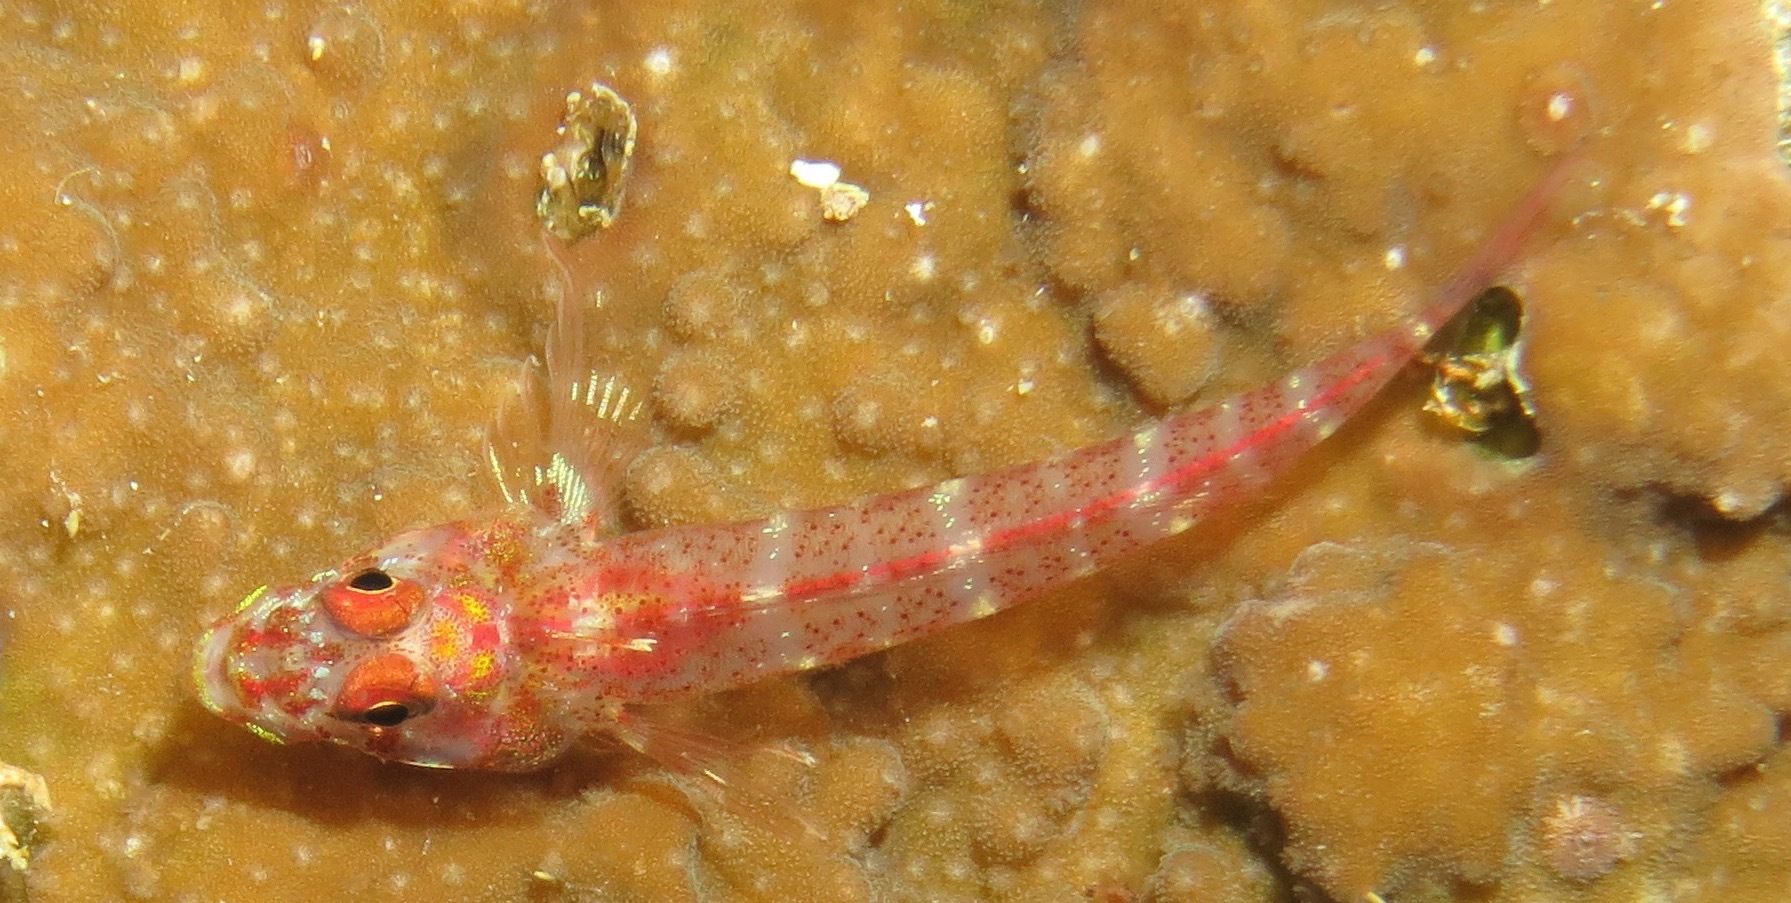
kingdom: Animalia
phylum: Chordata
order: Perciformes
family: Tripterygiidae
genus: Ucla
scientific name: Ucla xenogrammus
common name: Largemouth triplefin
